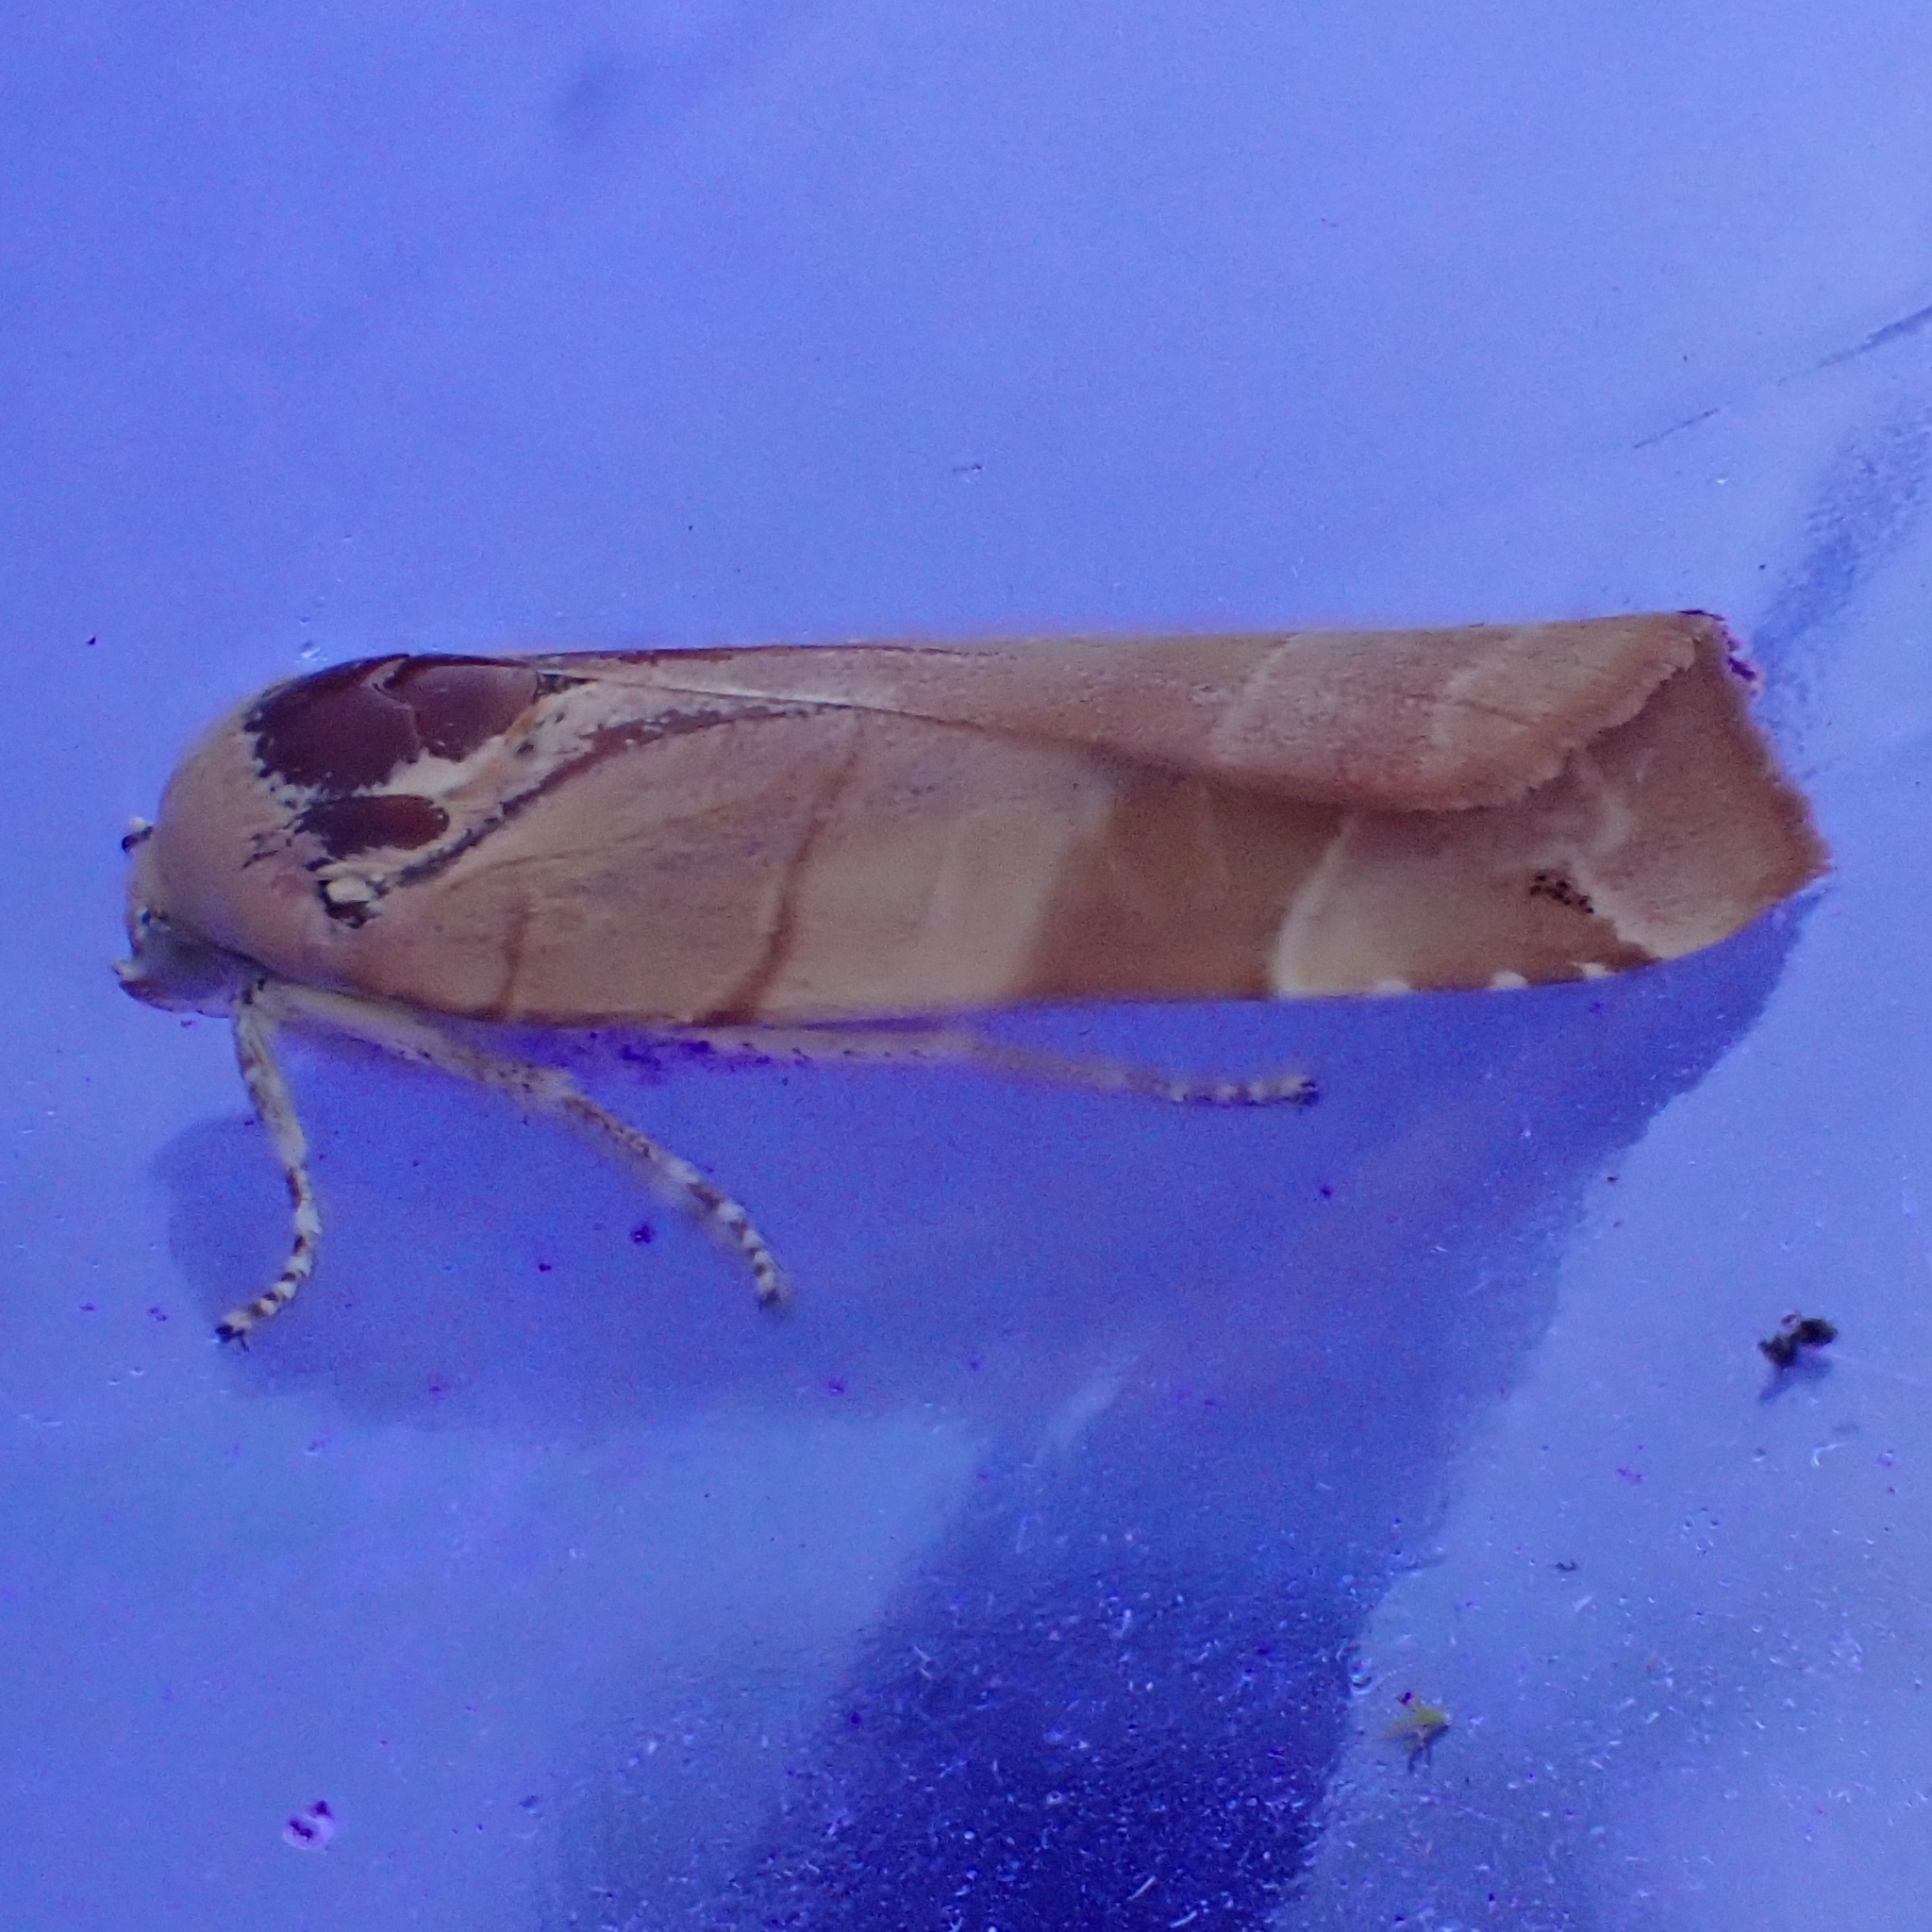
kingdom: Animalia
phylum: Arthropoda
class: Insecta
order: Lepidoptera
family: Noctuidae
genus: Noctua
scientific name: Noctua fimbriata
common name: Broad-bordered yellow underwing
